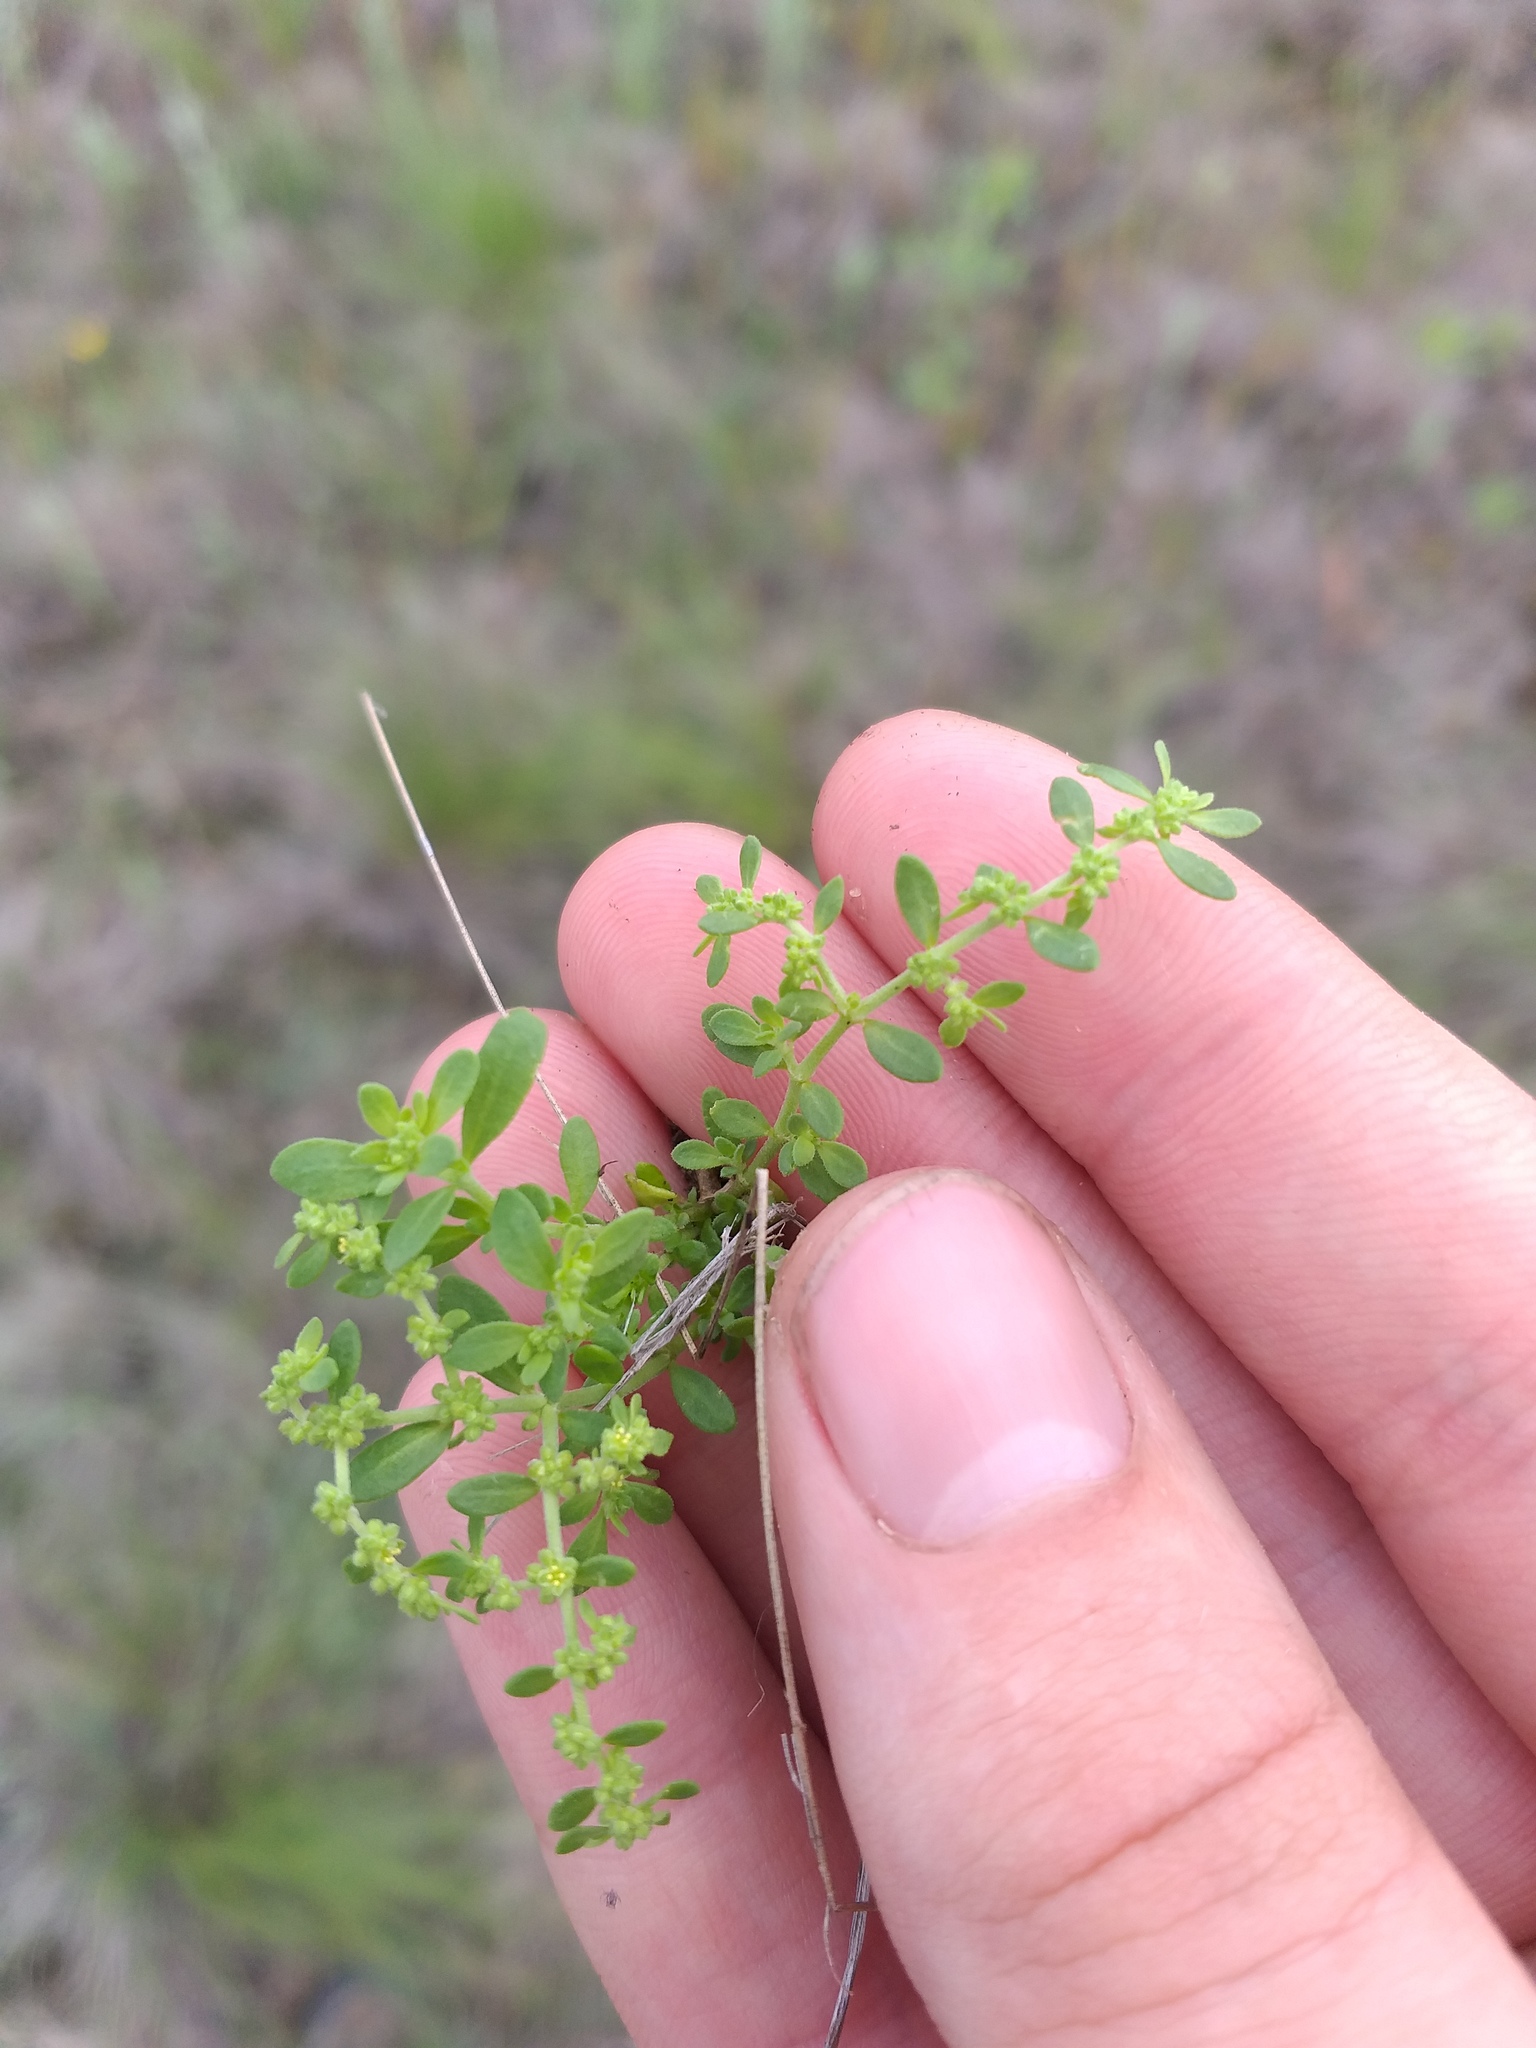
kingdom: Plantae
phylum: Tracheophyta
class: Magnoliopsida
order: Caryophyllales
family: Caryophyllaceae
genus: Herniaria
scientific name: Herniaria polygama
